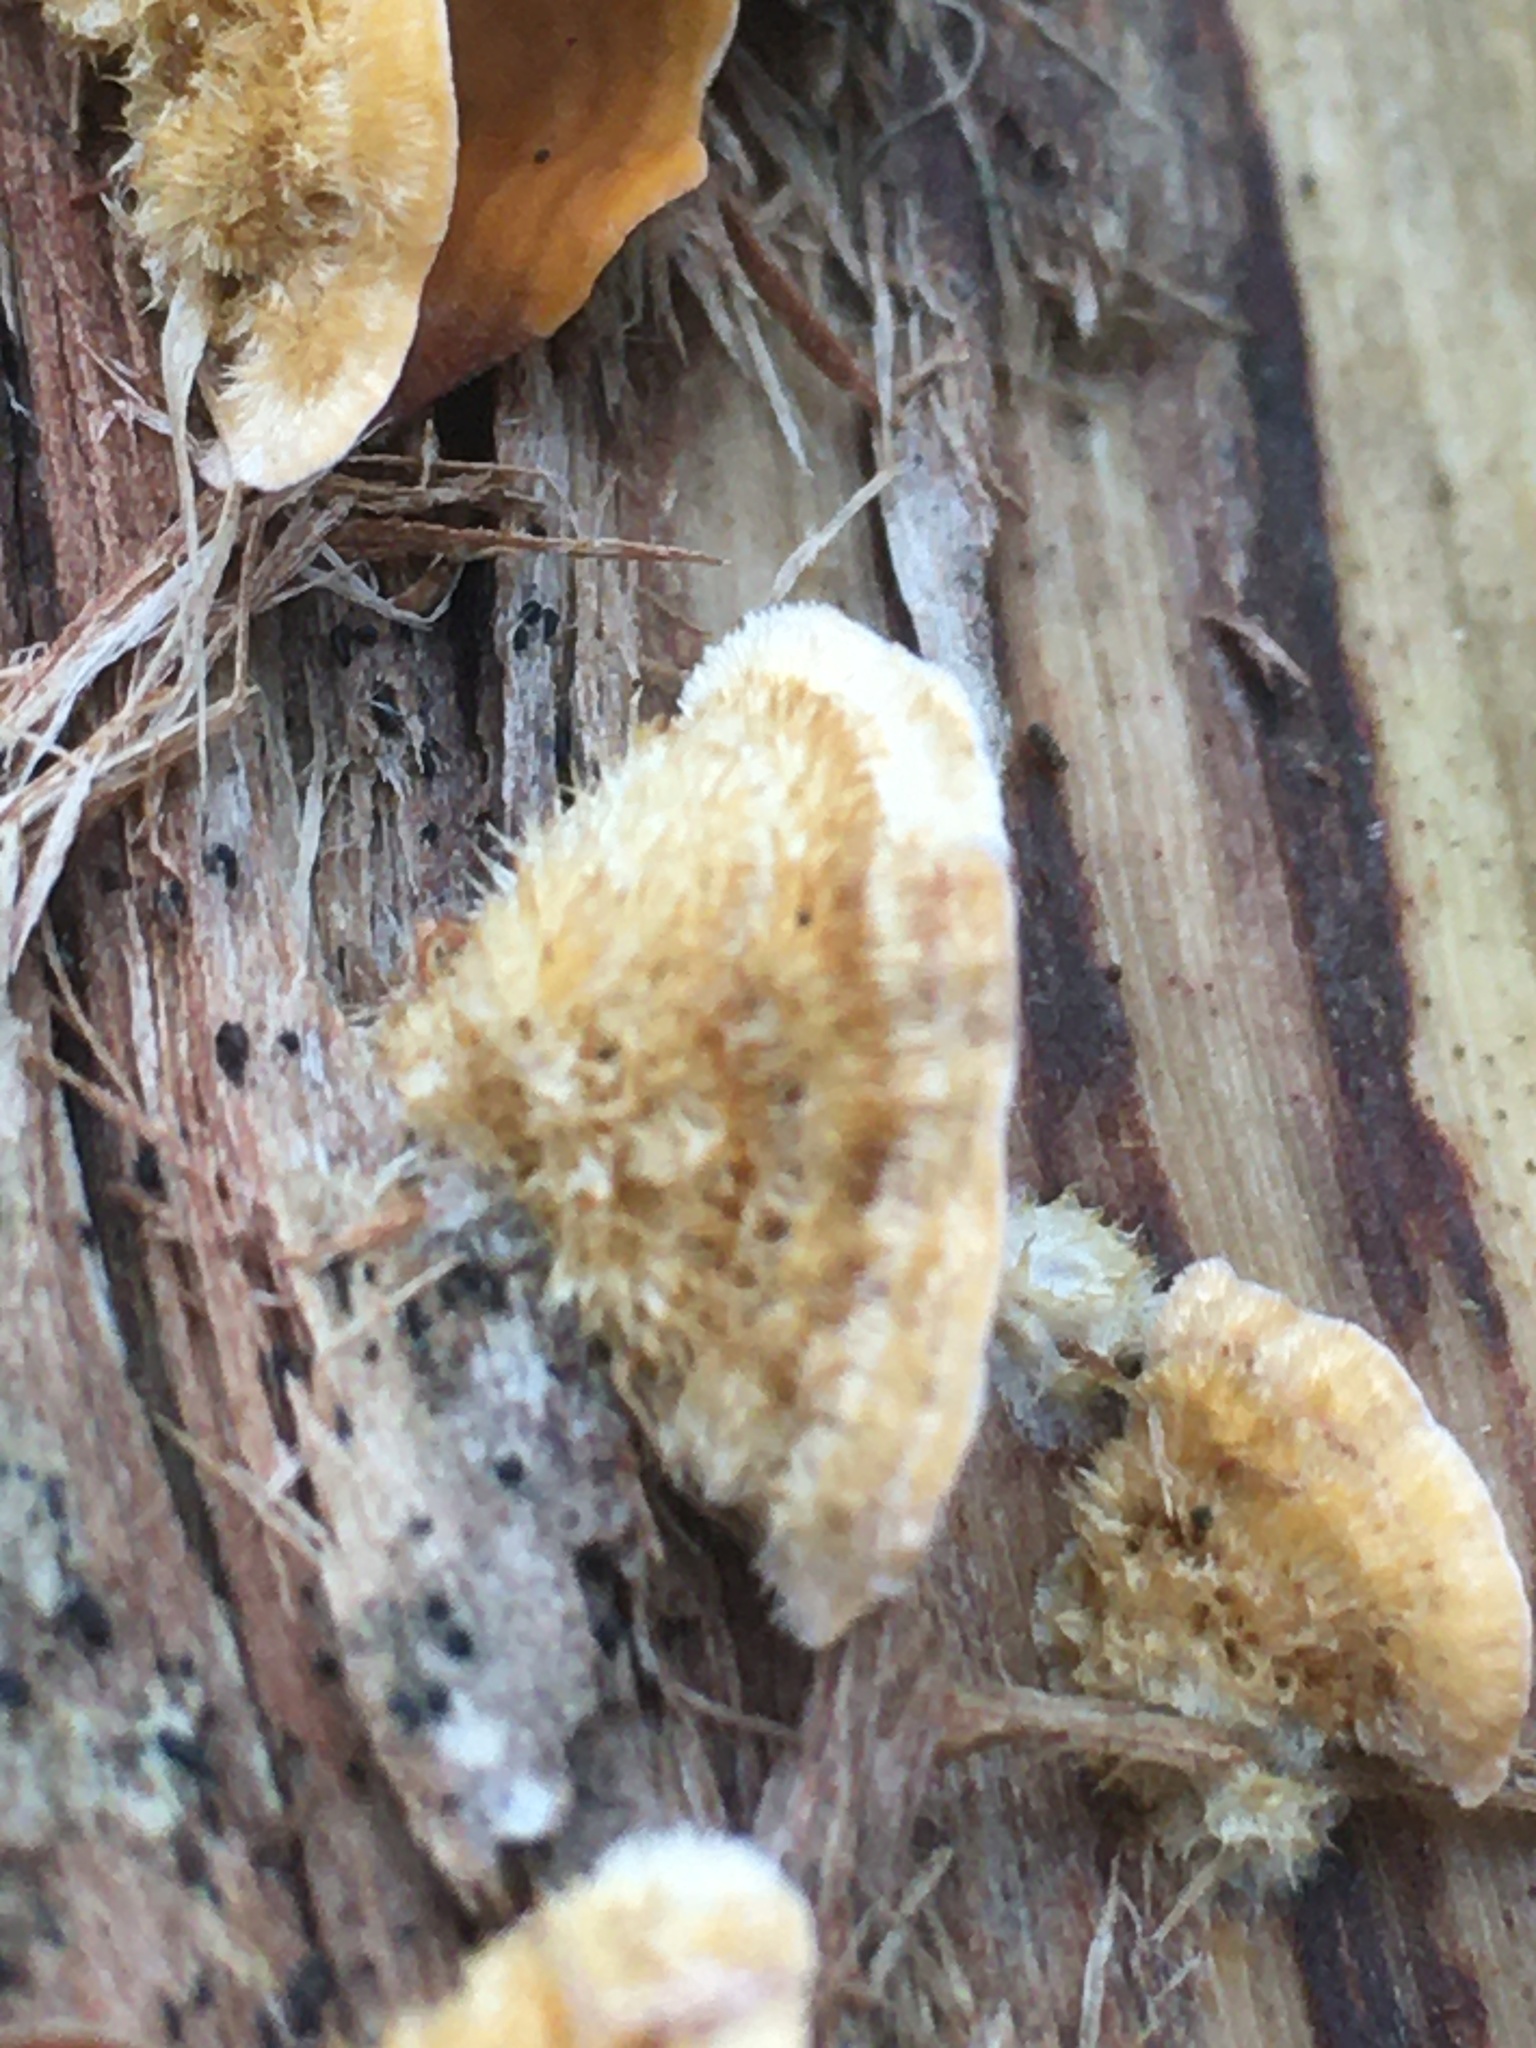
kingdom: Fungi
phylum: Basidiomycota
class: Agaricomycetes
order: Russulales
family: Stereaceae
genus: Stereum
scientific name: Stereum hirsutum
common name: Hairy curtain crust
